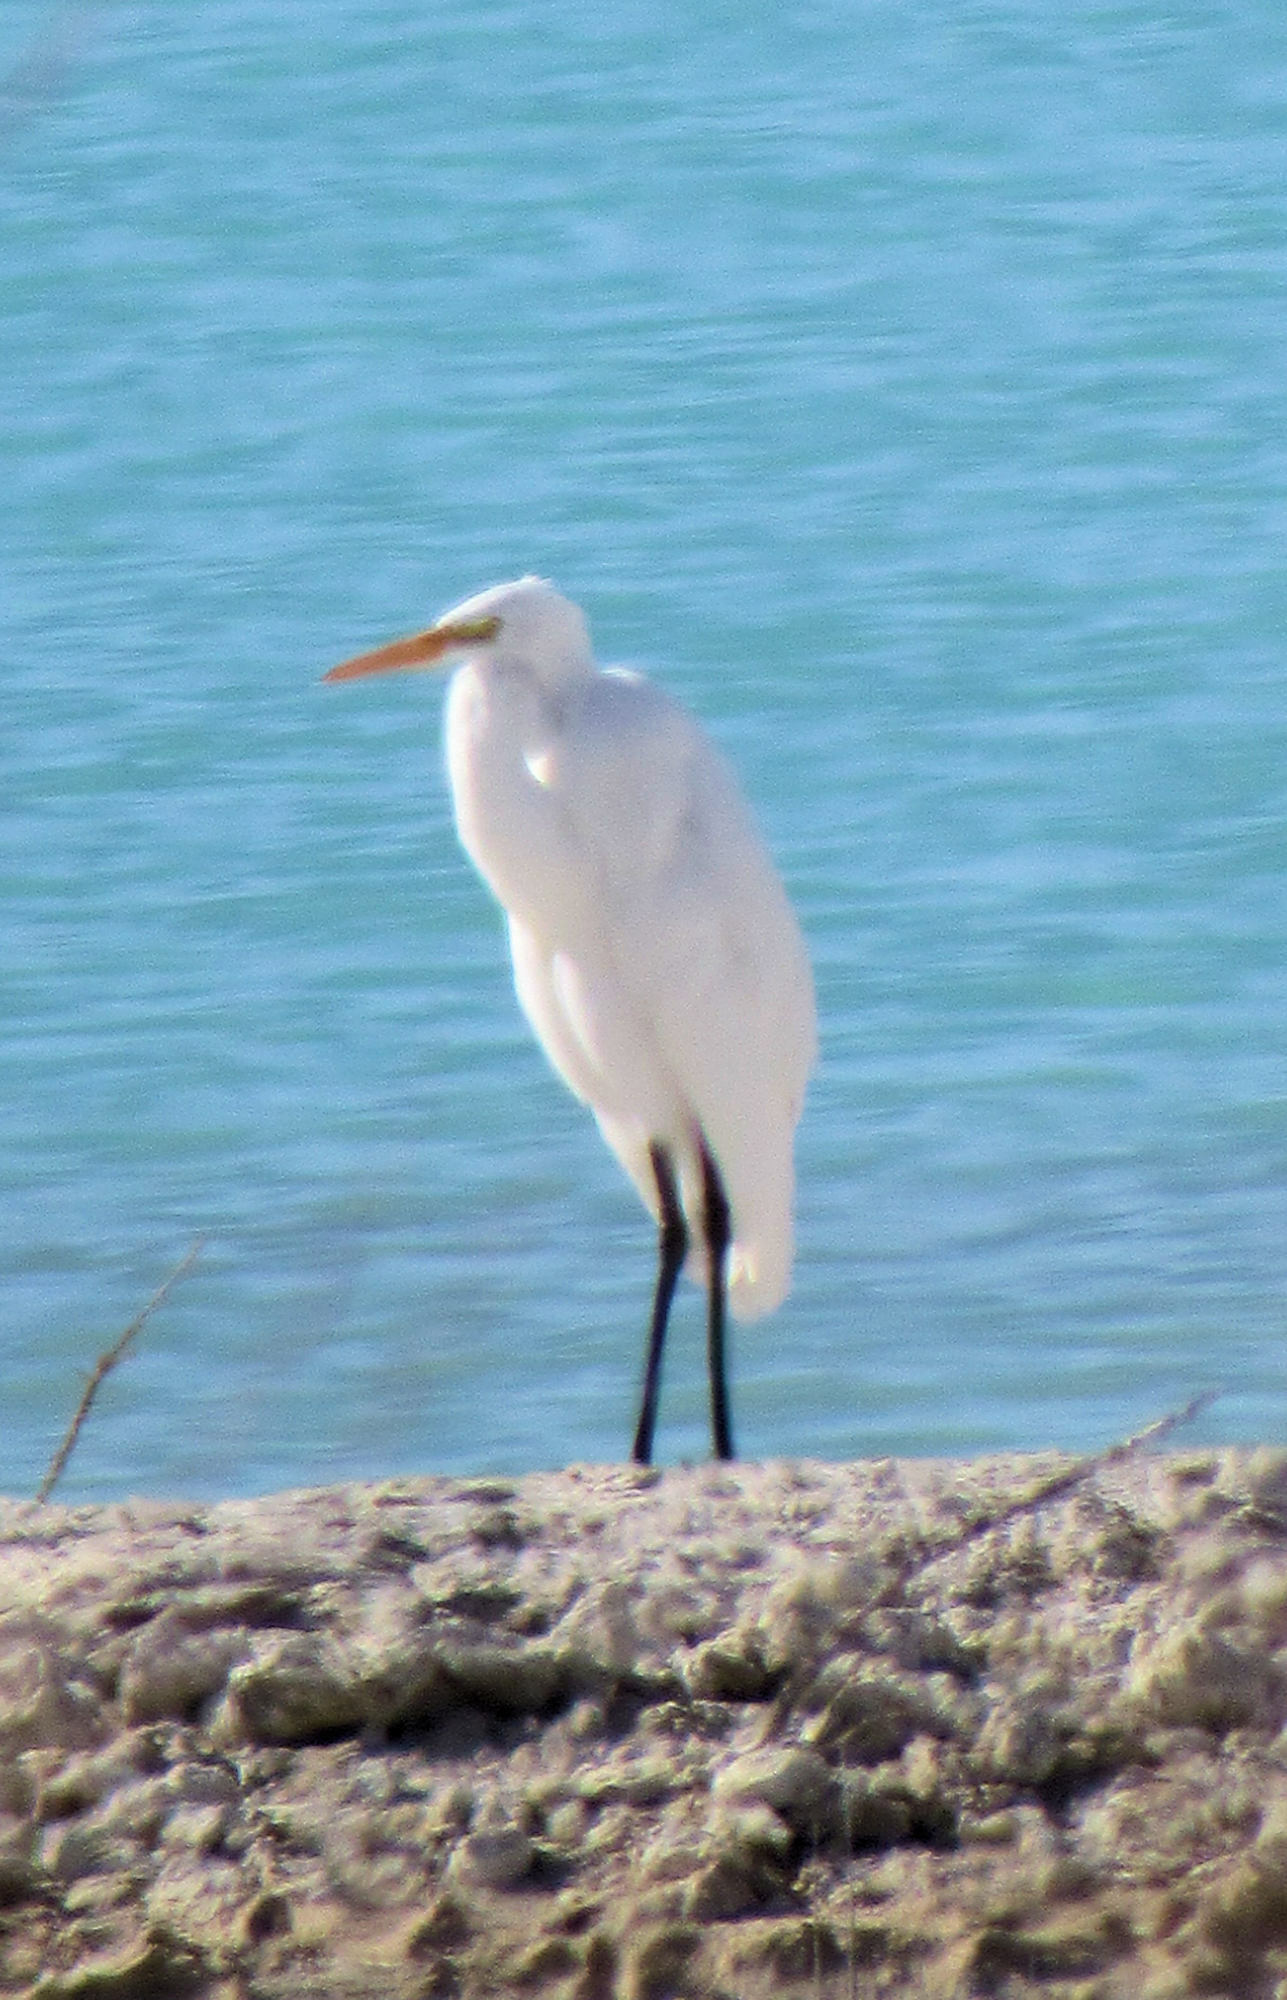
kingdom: Animalia
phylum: Chordata
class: Aves
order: Pelecaniformes
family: Ardeidae
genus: Ardea
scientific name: Ardea alba
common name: Great egret
